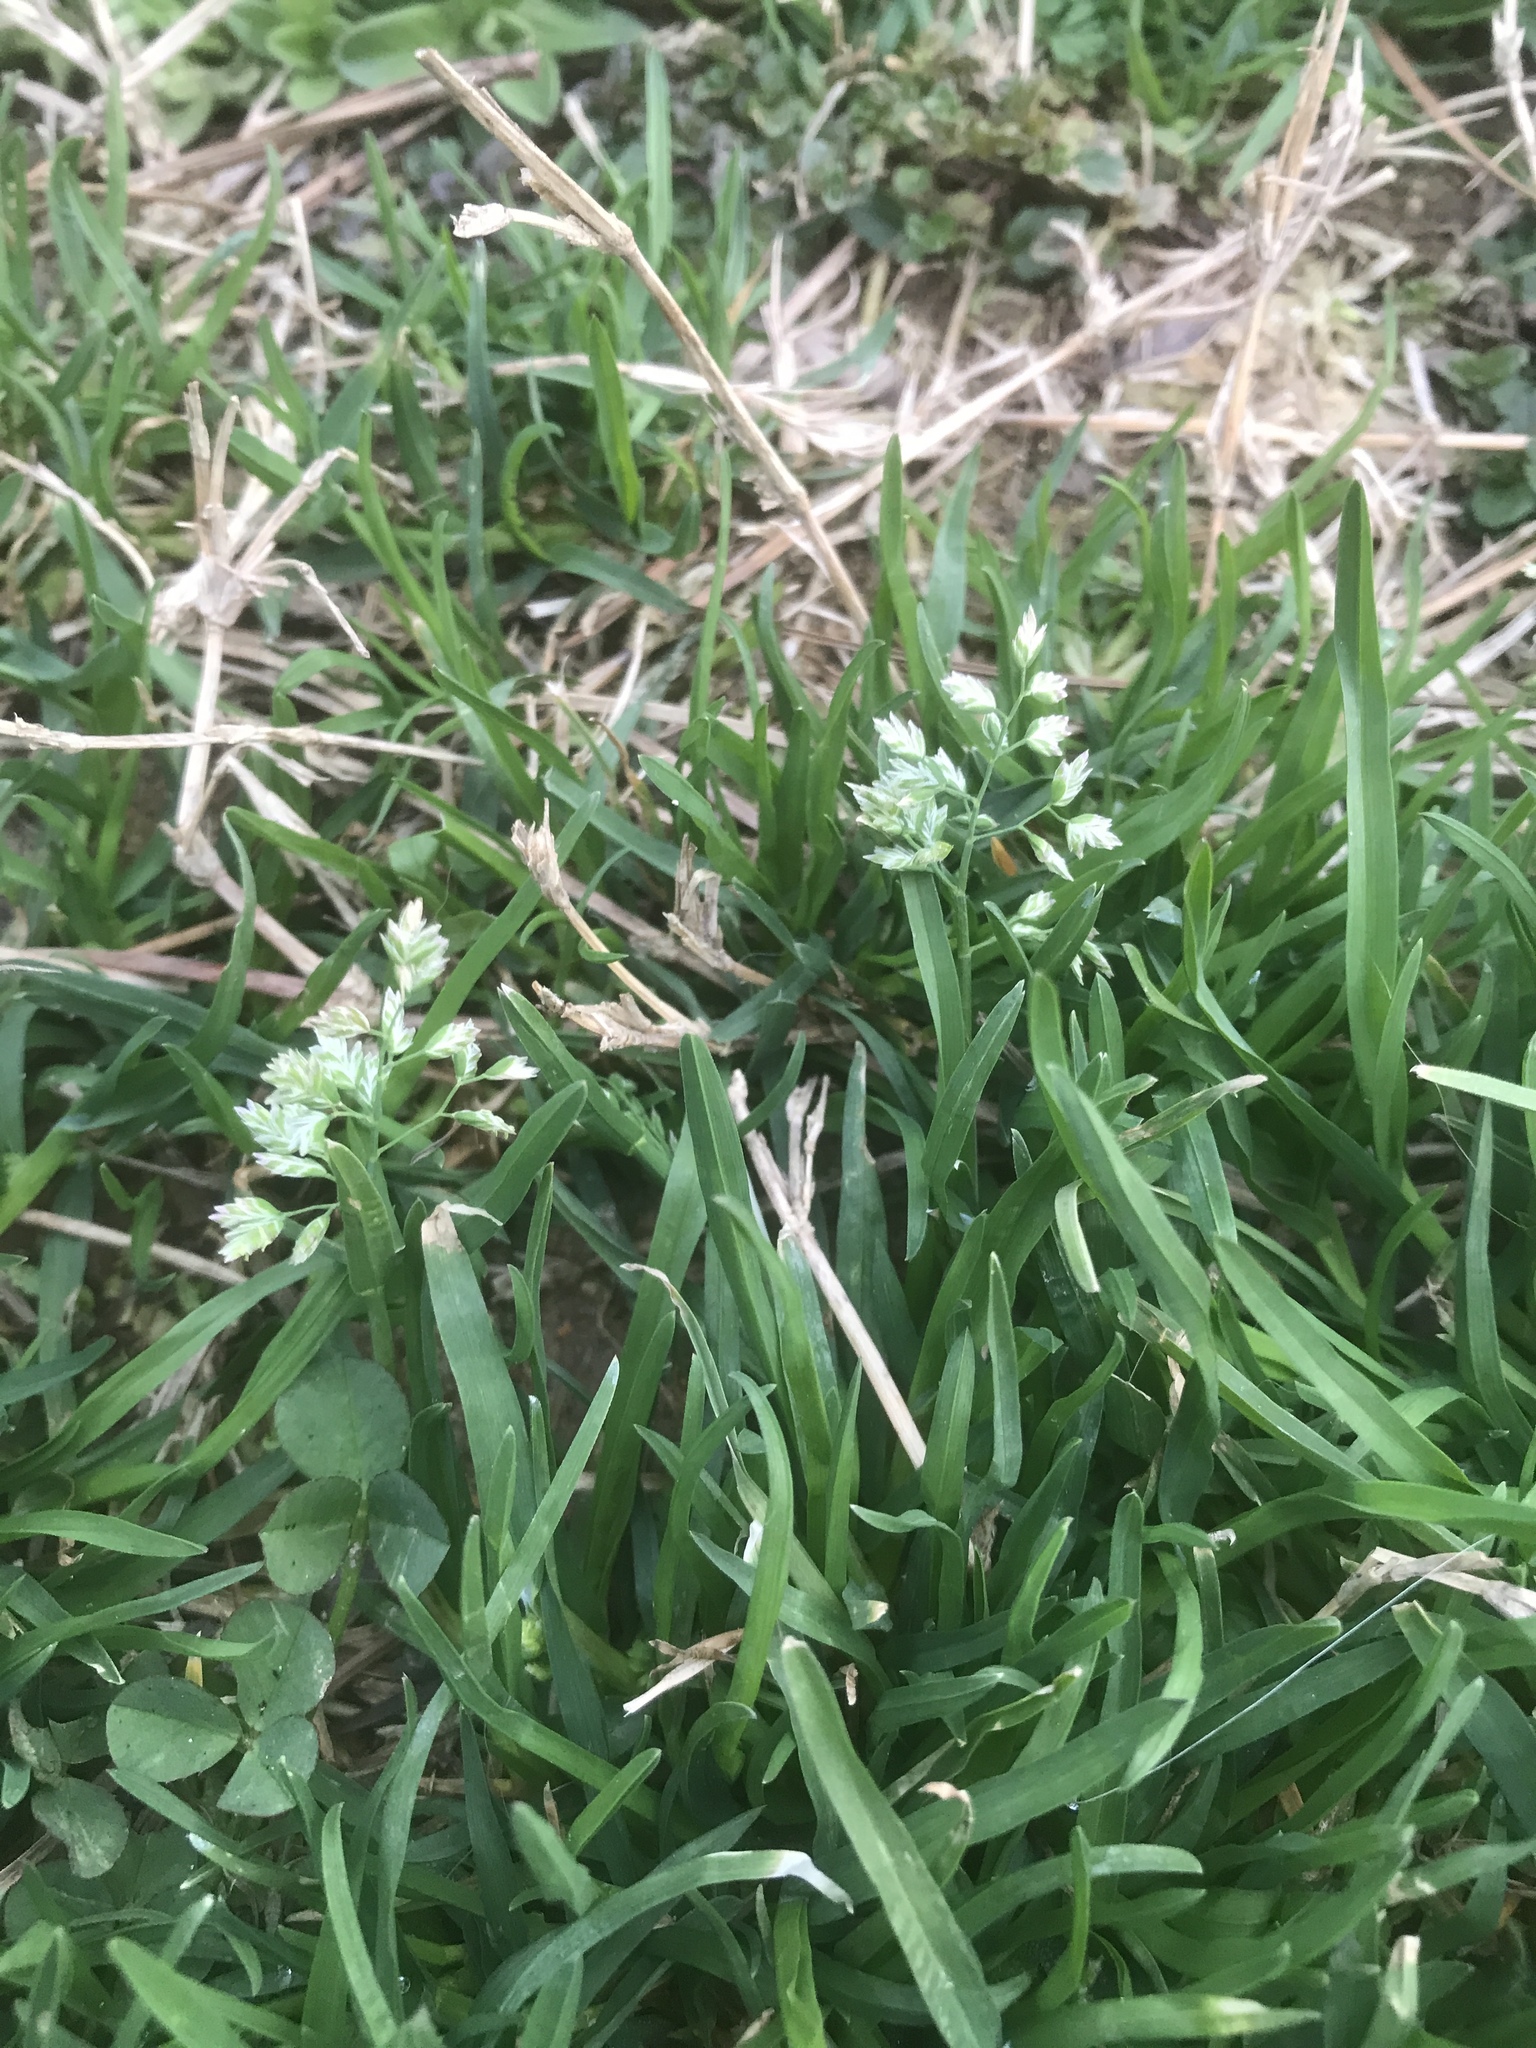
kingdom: Plantae
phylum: Tracheophyta
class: Liliopsida
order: Poales
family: Poaceae
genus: Poa
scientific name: Poa annua
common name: Annual bluegrass
